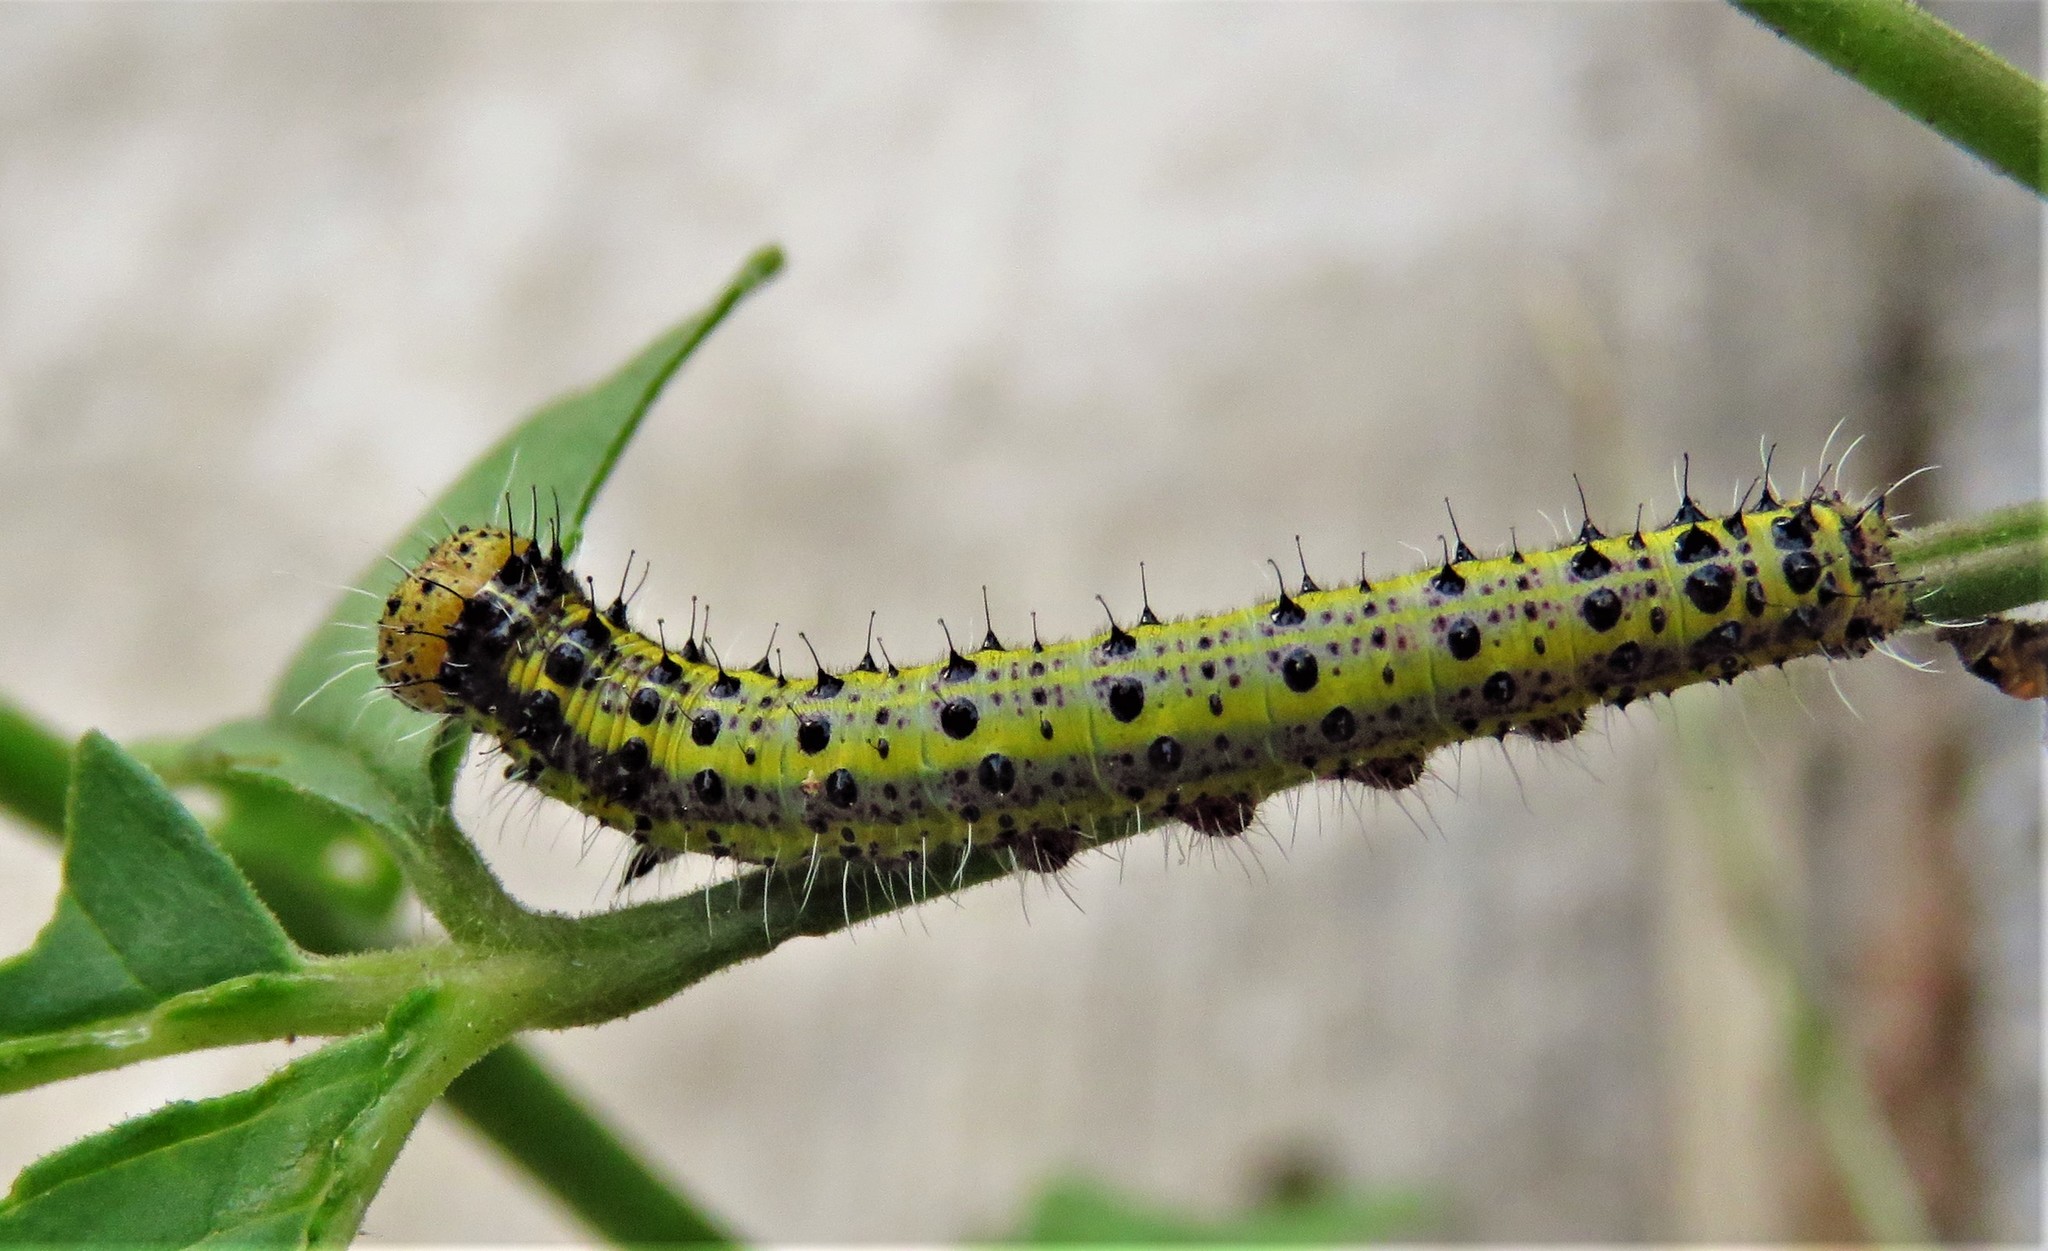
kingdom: Animalia
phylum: Arthropoda
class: Insecta
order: Lepidoptera
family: Pieridae
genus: Ascia
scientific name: Ascia monuste
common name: Great southern white
